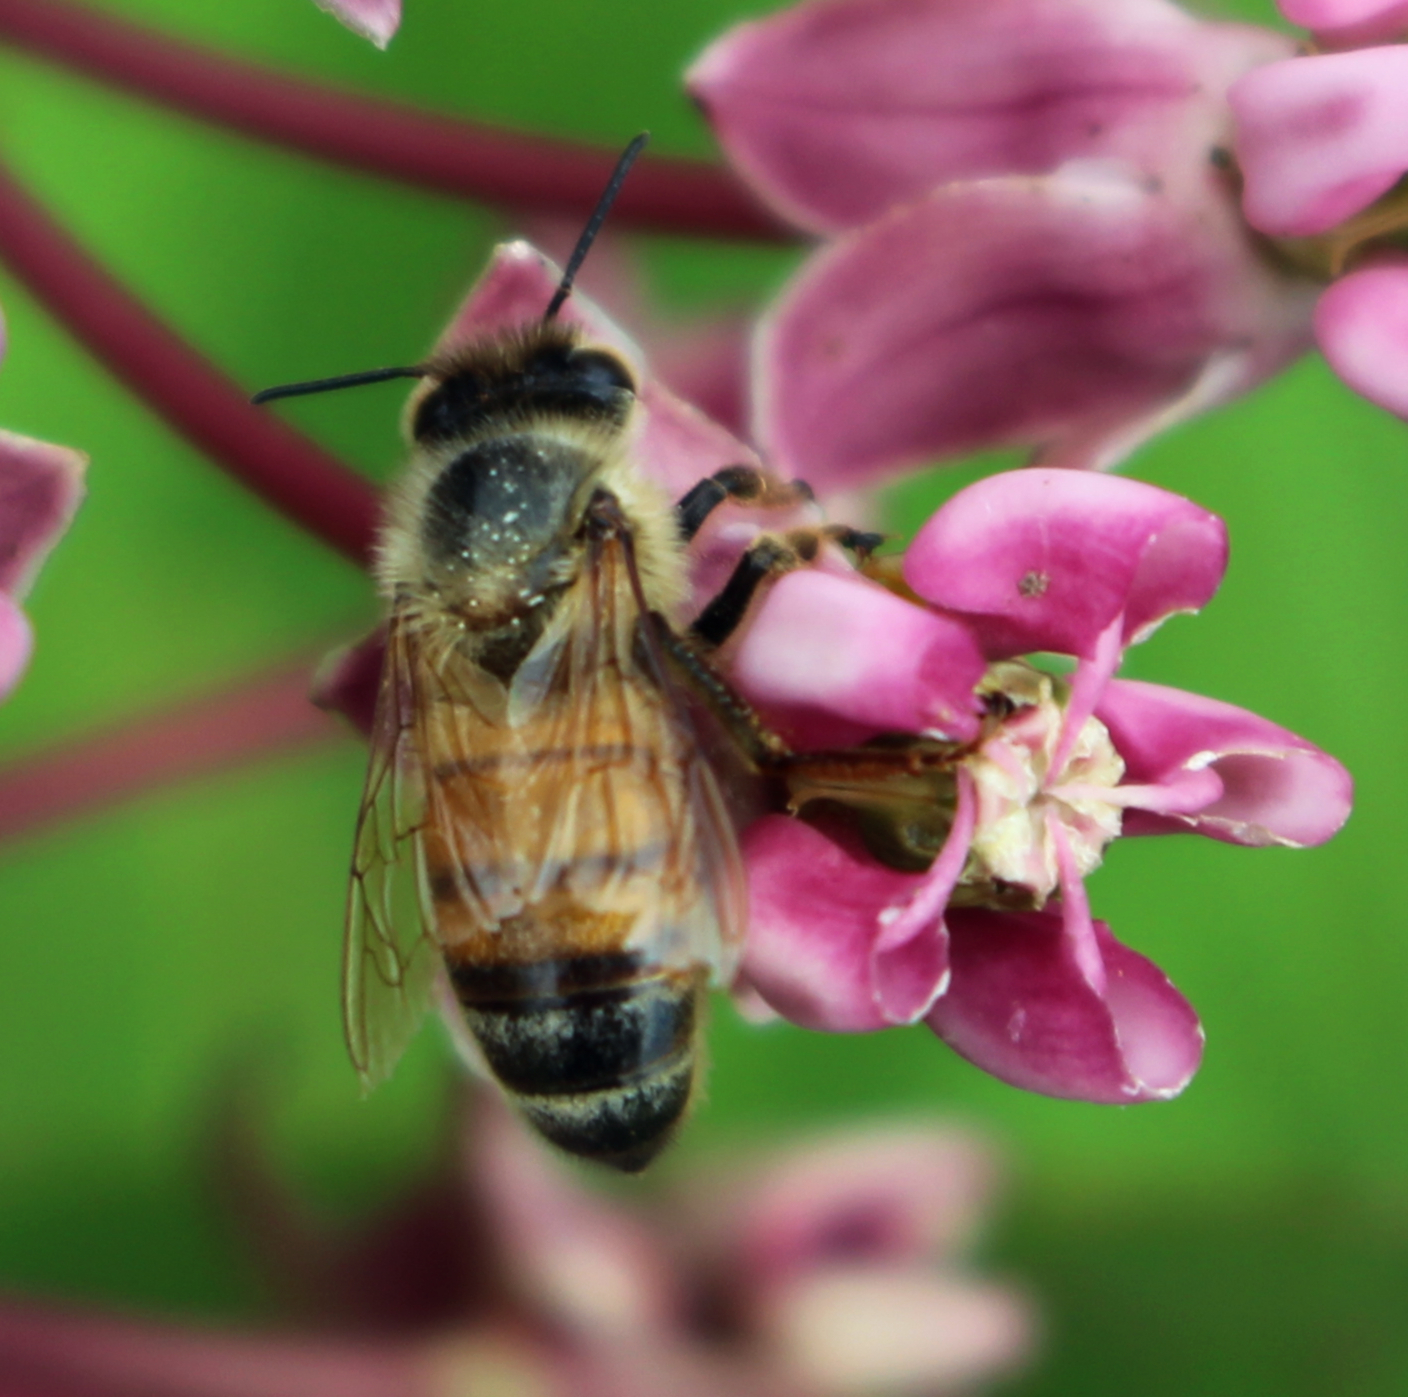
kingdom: Animalia
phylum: Arthropoda
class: Insecta
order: Hymenoptera
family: Apidae
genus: Apis
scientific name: Apis mellifera
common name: Honey bee
